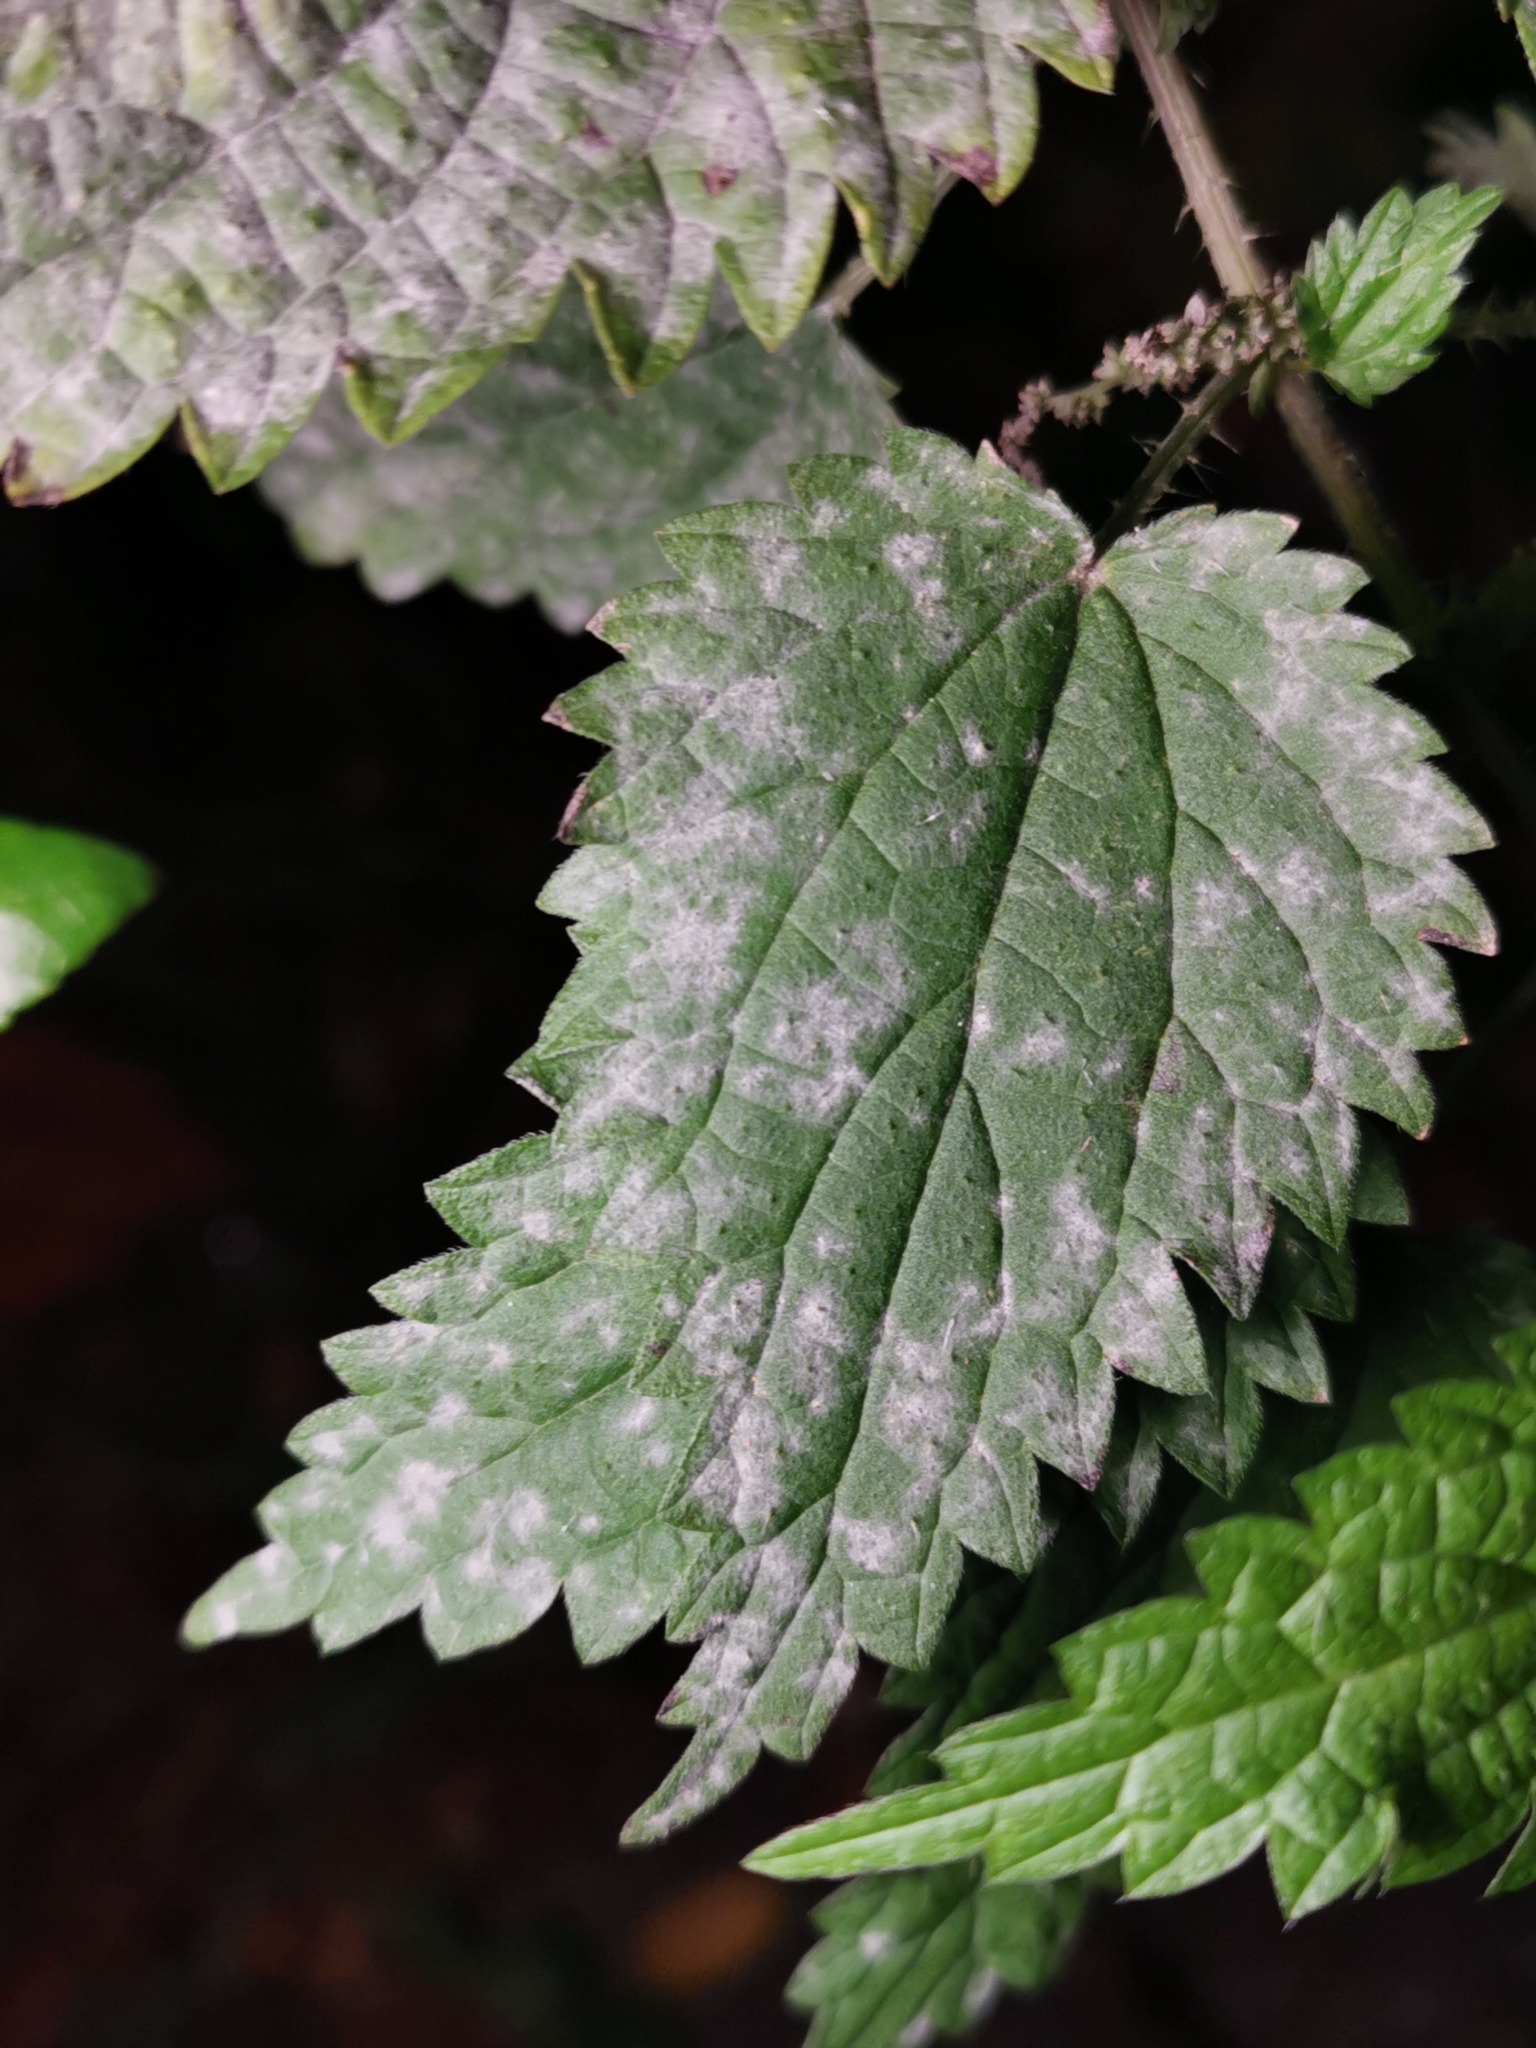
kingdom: Fungi
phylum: Ascomycota
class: Leotiomycetes
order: Helotiales
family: Erysiphaceae
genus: Erysiphe
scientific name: Erysiphe urticae
